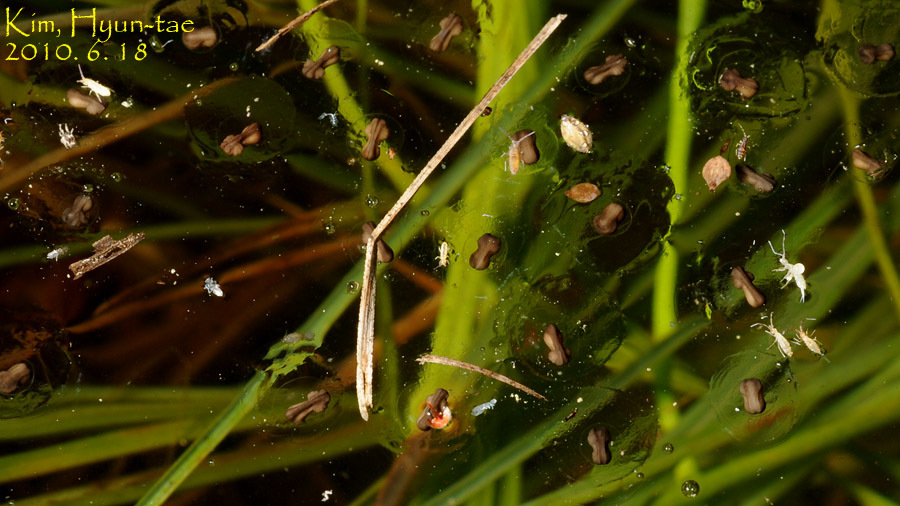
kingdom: Animalia
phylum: Chordata
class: Amphibia
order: Anura
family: Microhylidae
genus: Kaloula
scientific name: Kaloula borealis
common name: Boreal digging frog
